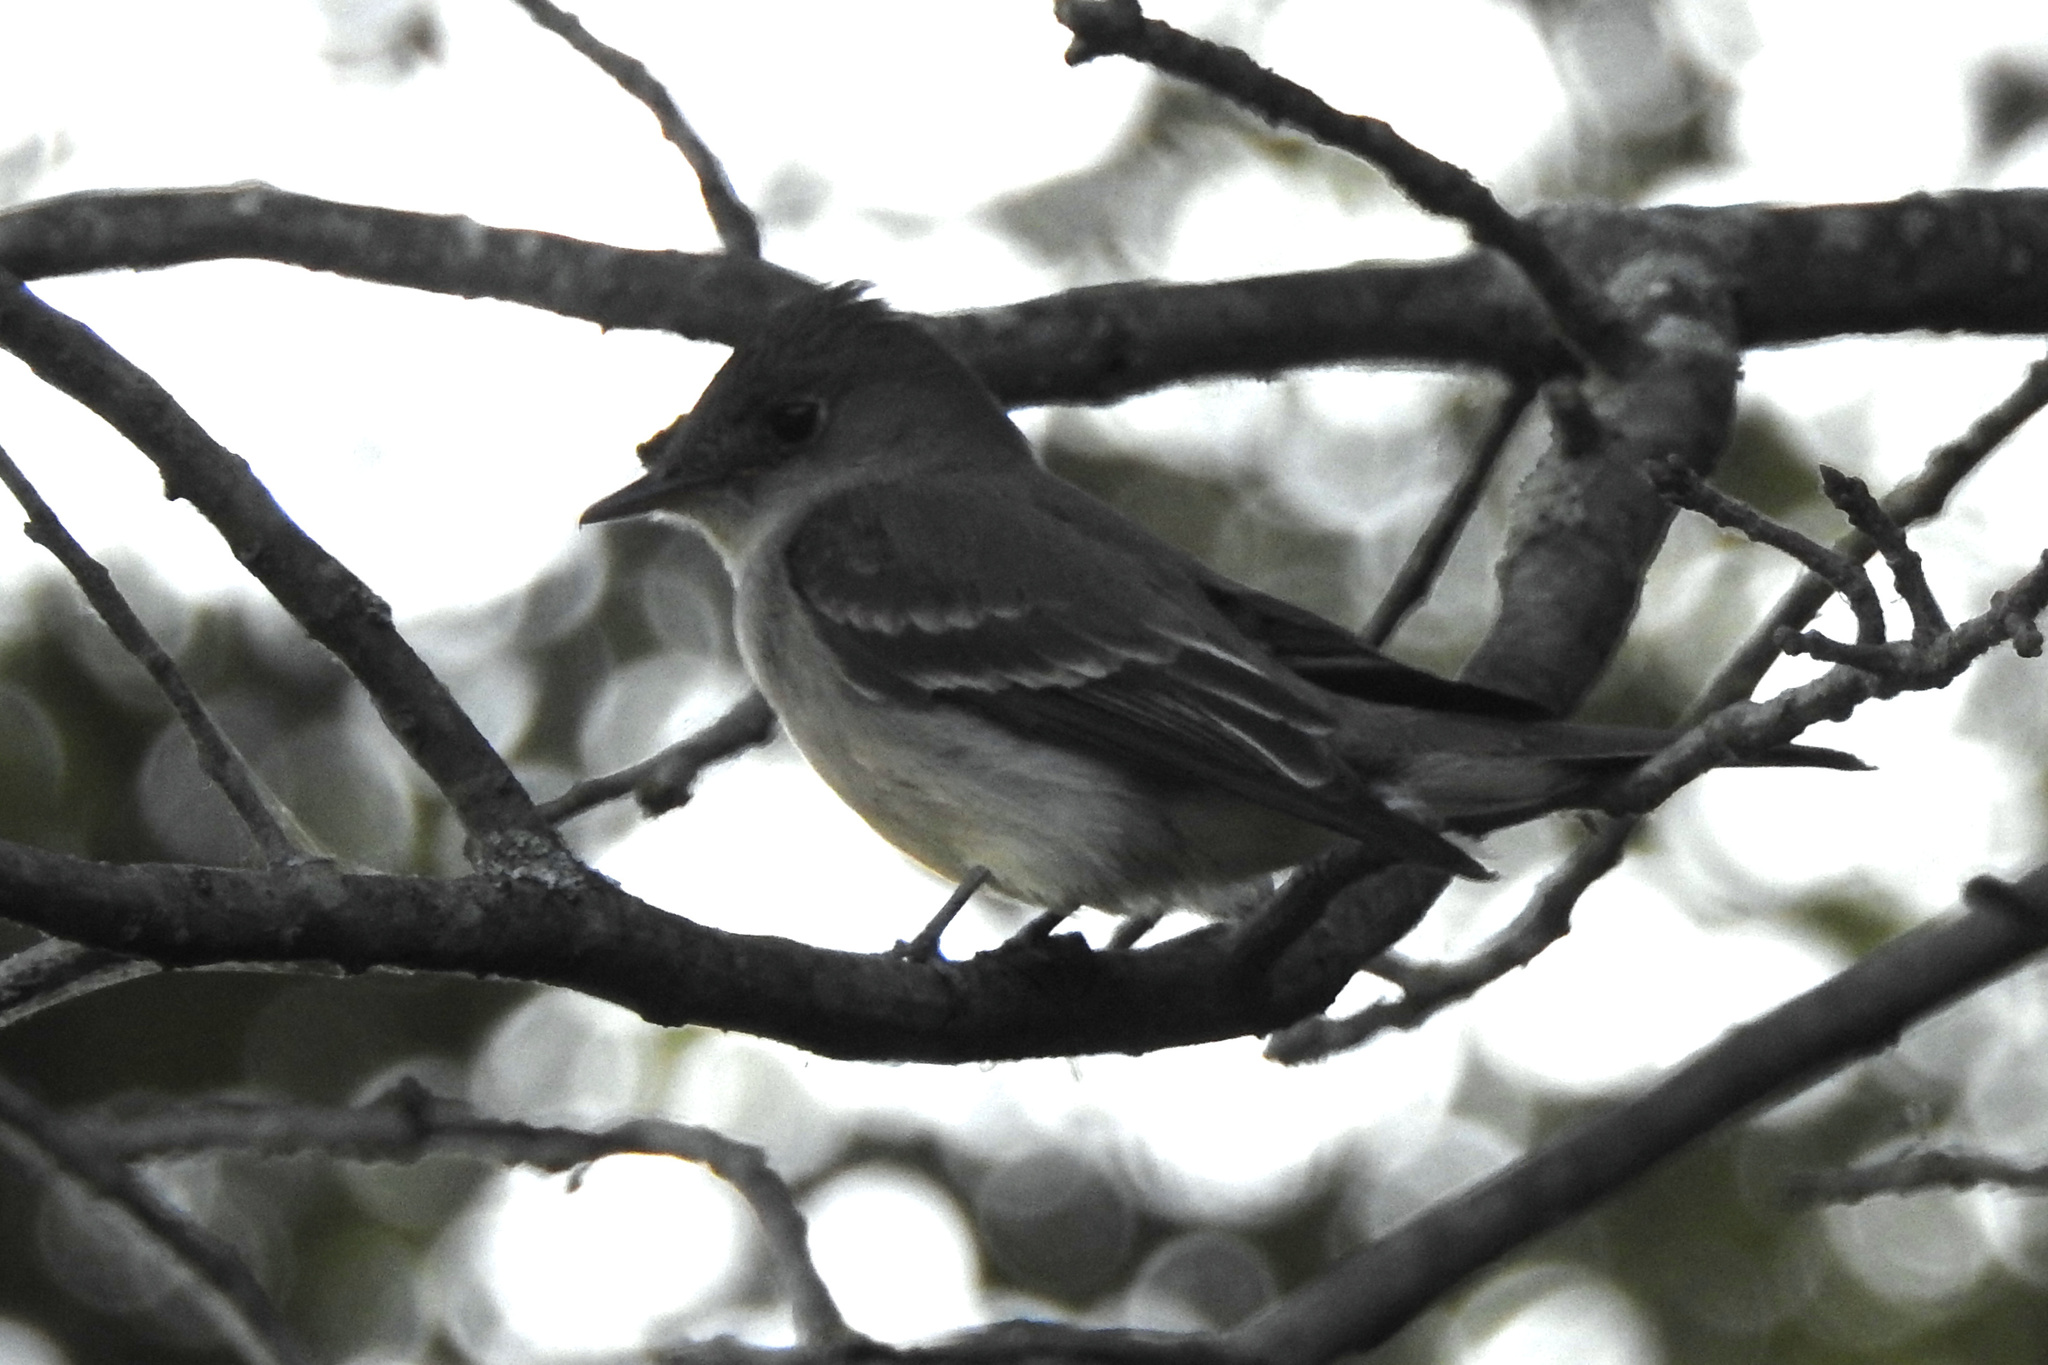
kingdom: Animalia
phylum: Chordata
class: Aves
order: Passeriformes
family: Tyrannidae
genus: Contopus
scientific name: Contopus virens
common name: Eastern wood-pewee
